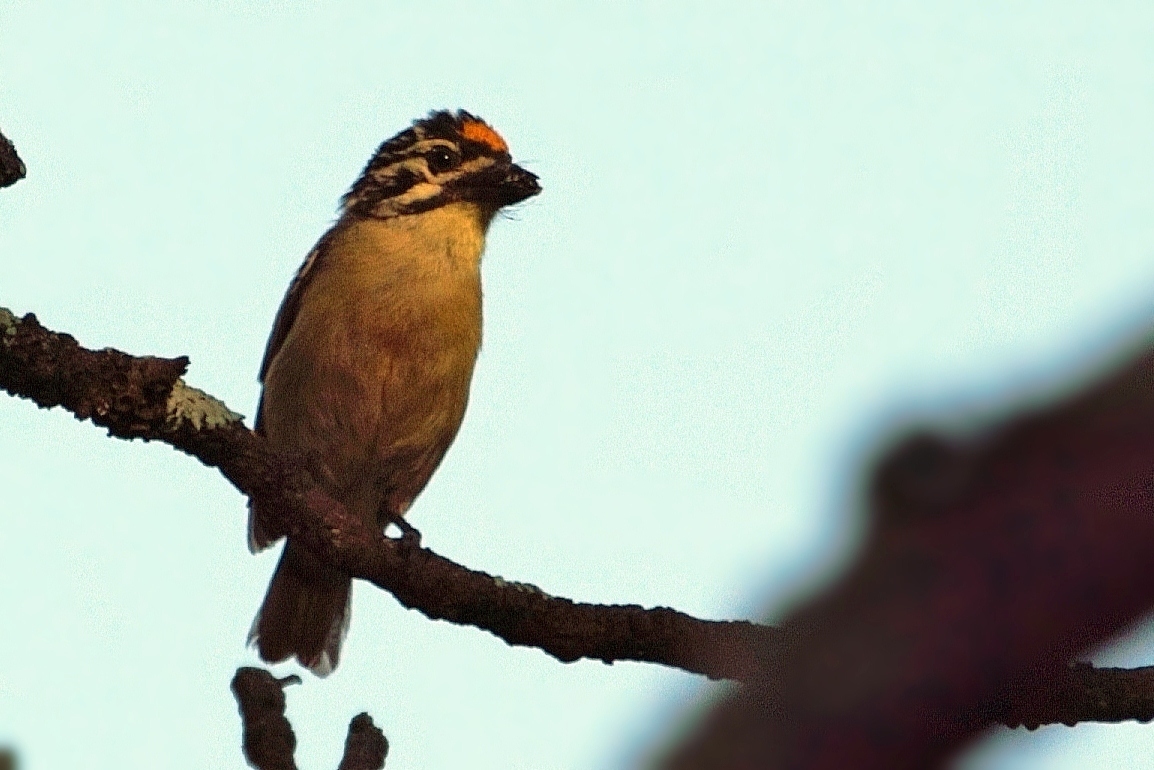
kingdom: Animalia
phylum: Chordata
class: Aves
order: Piciformes
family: Lybiidae
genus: Pogoniulus
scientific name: Pogoniulus chrysoconus
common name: Yellow-fronted tinkerbird
